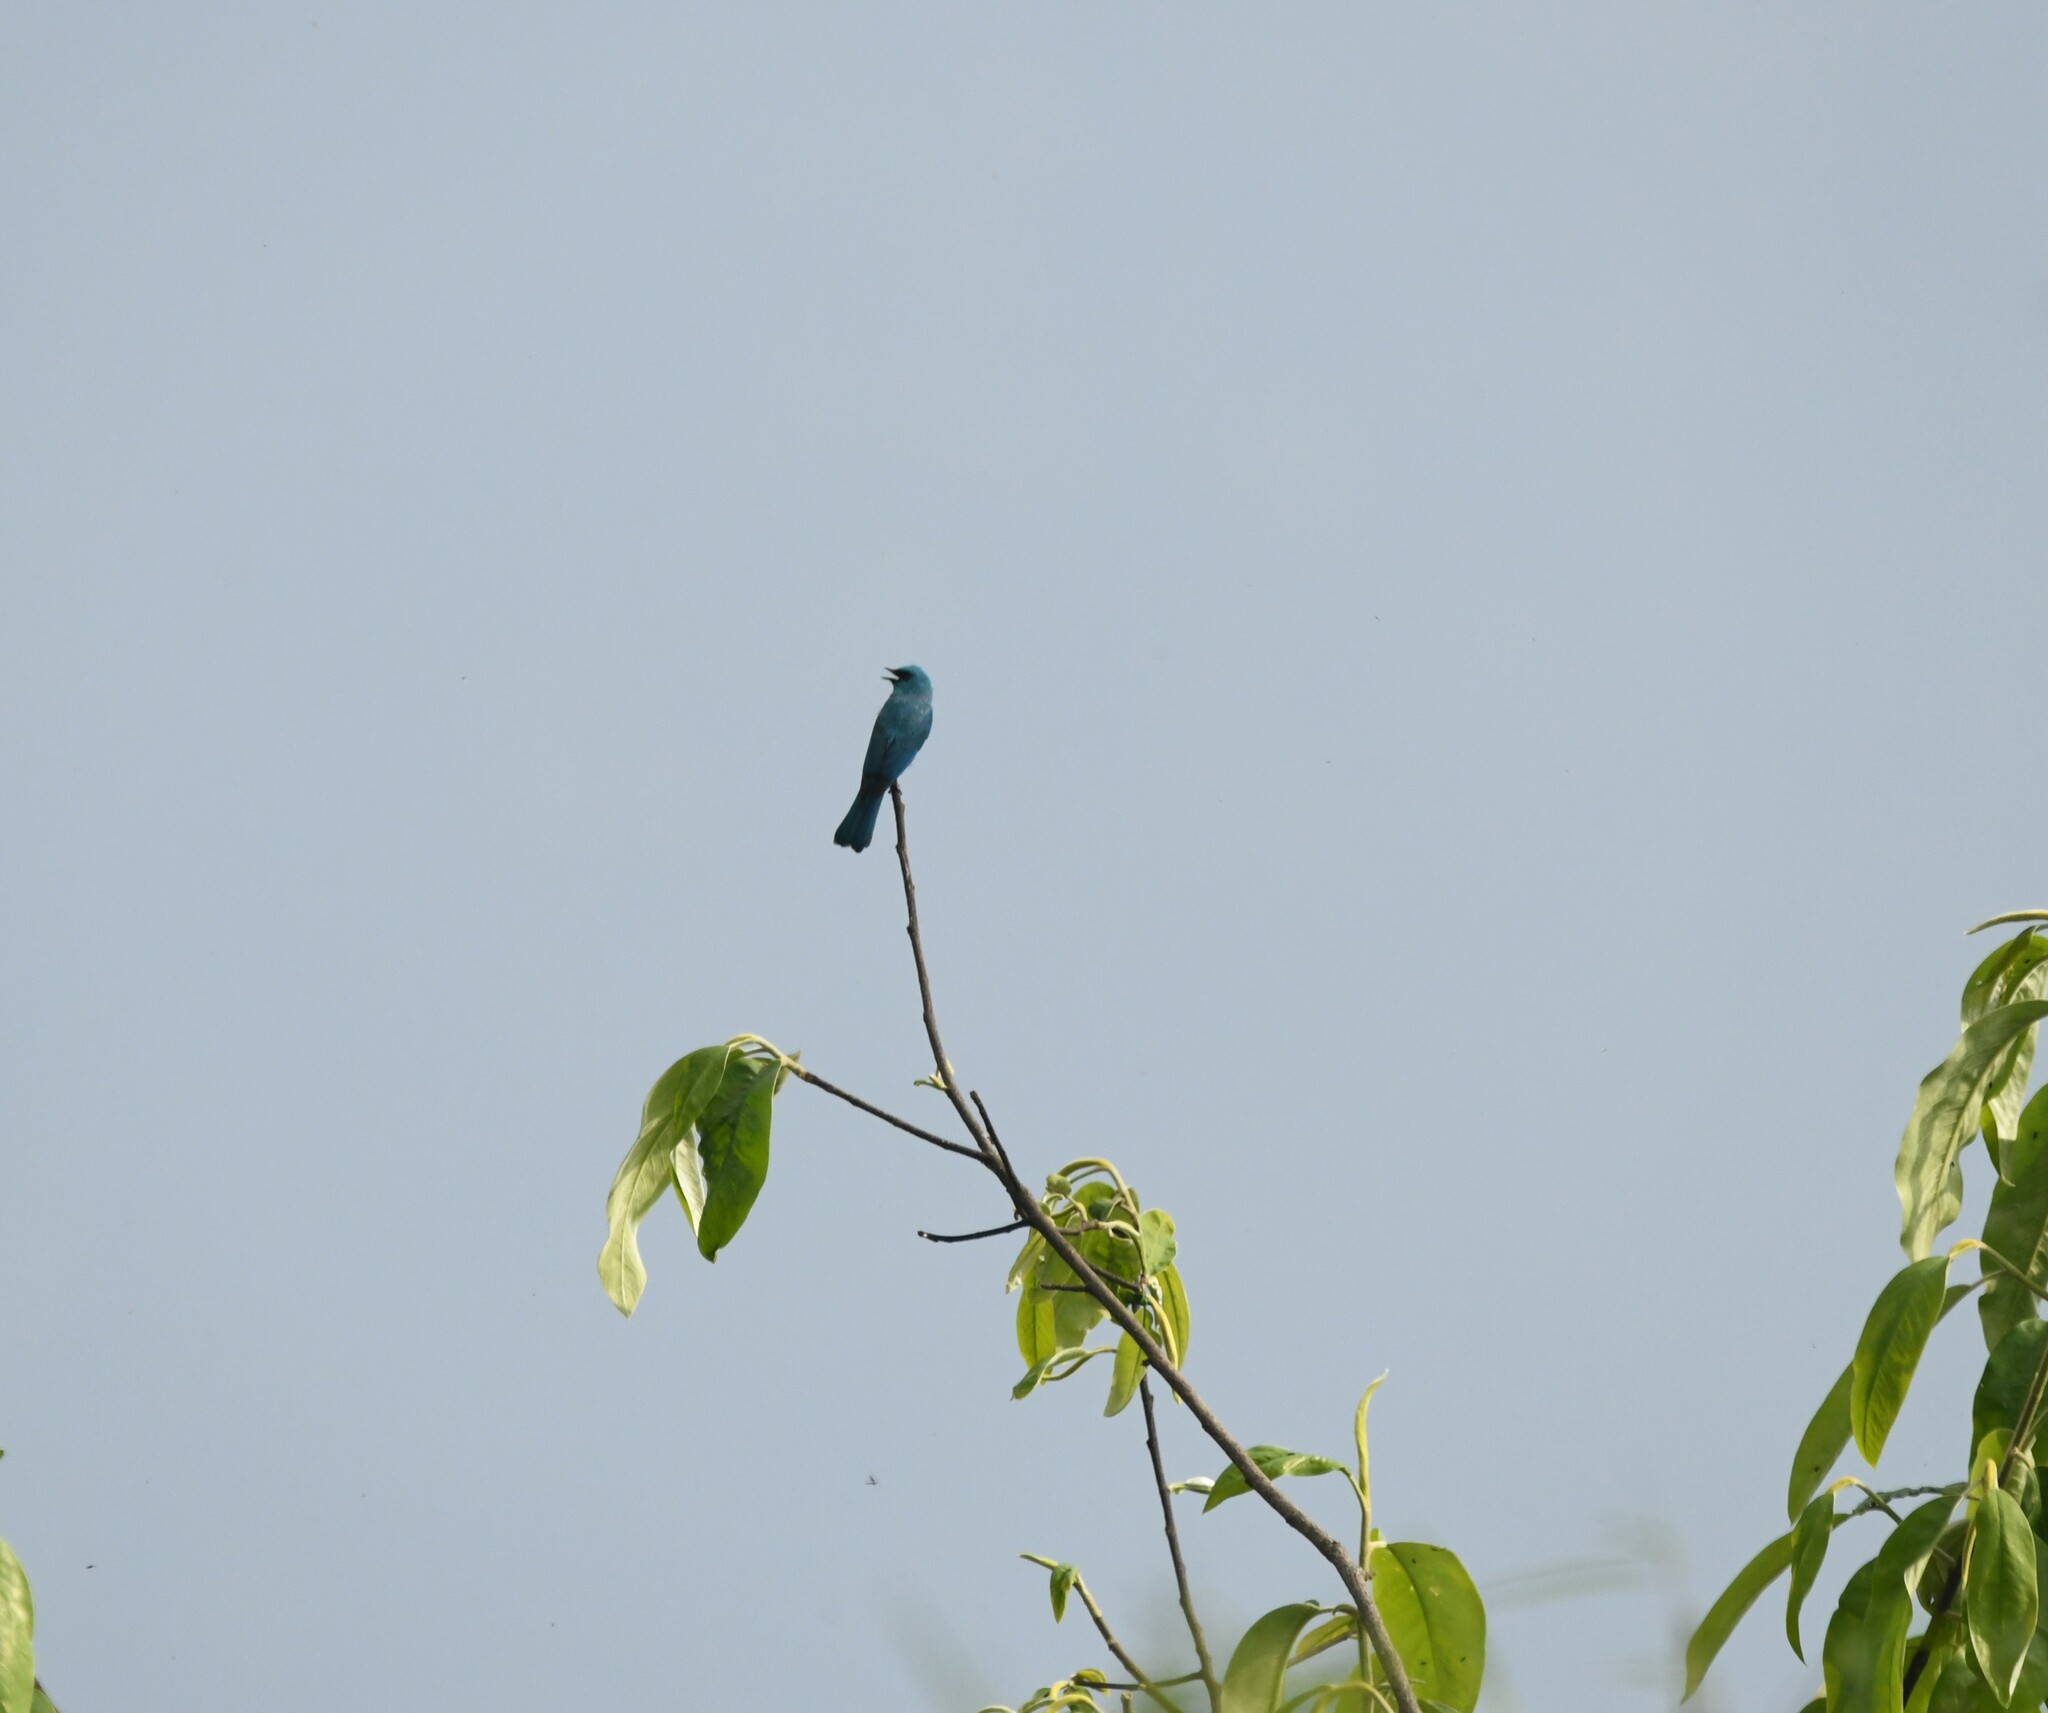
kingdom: Animalia
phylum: Chordata
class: Aves
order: Passeriformes
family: Muscicapidae
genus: Eumyias
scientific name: Eumyias thalassinus
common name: Verditer flycatcher
